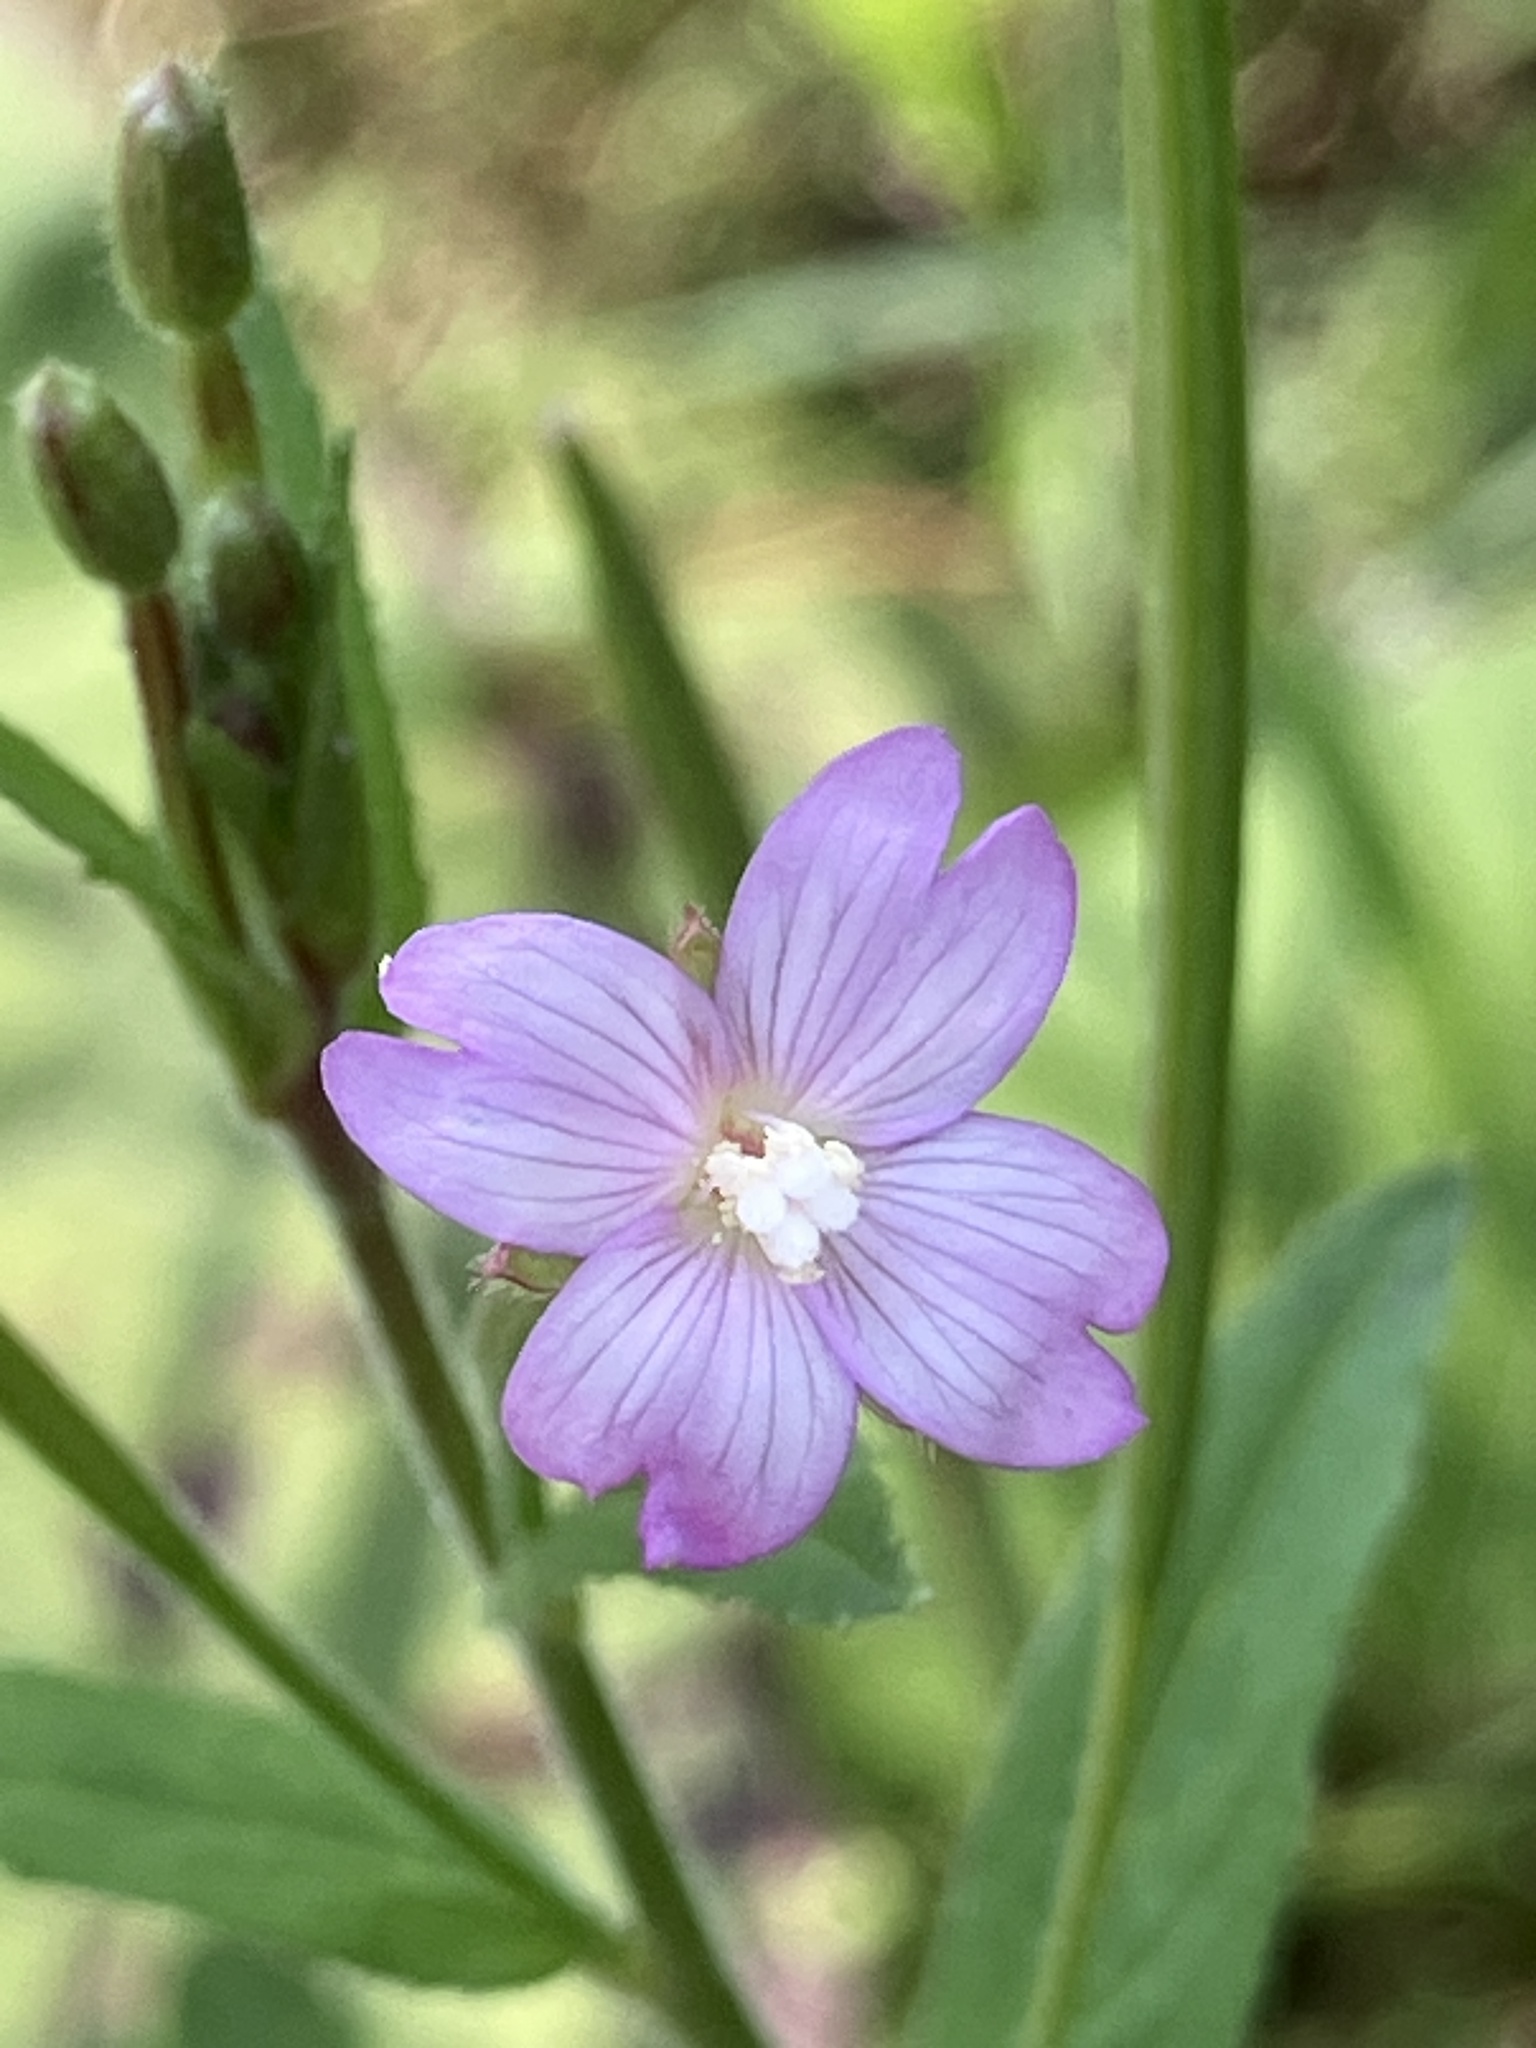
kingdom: Plantae
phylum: Tracheophyta
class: Magnoliopsida
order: Myrtales
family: Onagraceae
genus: Epilobium
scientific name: Epilobium parviflorum
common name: Hoary willowherb
